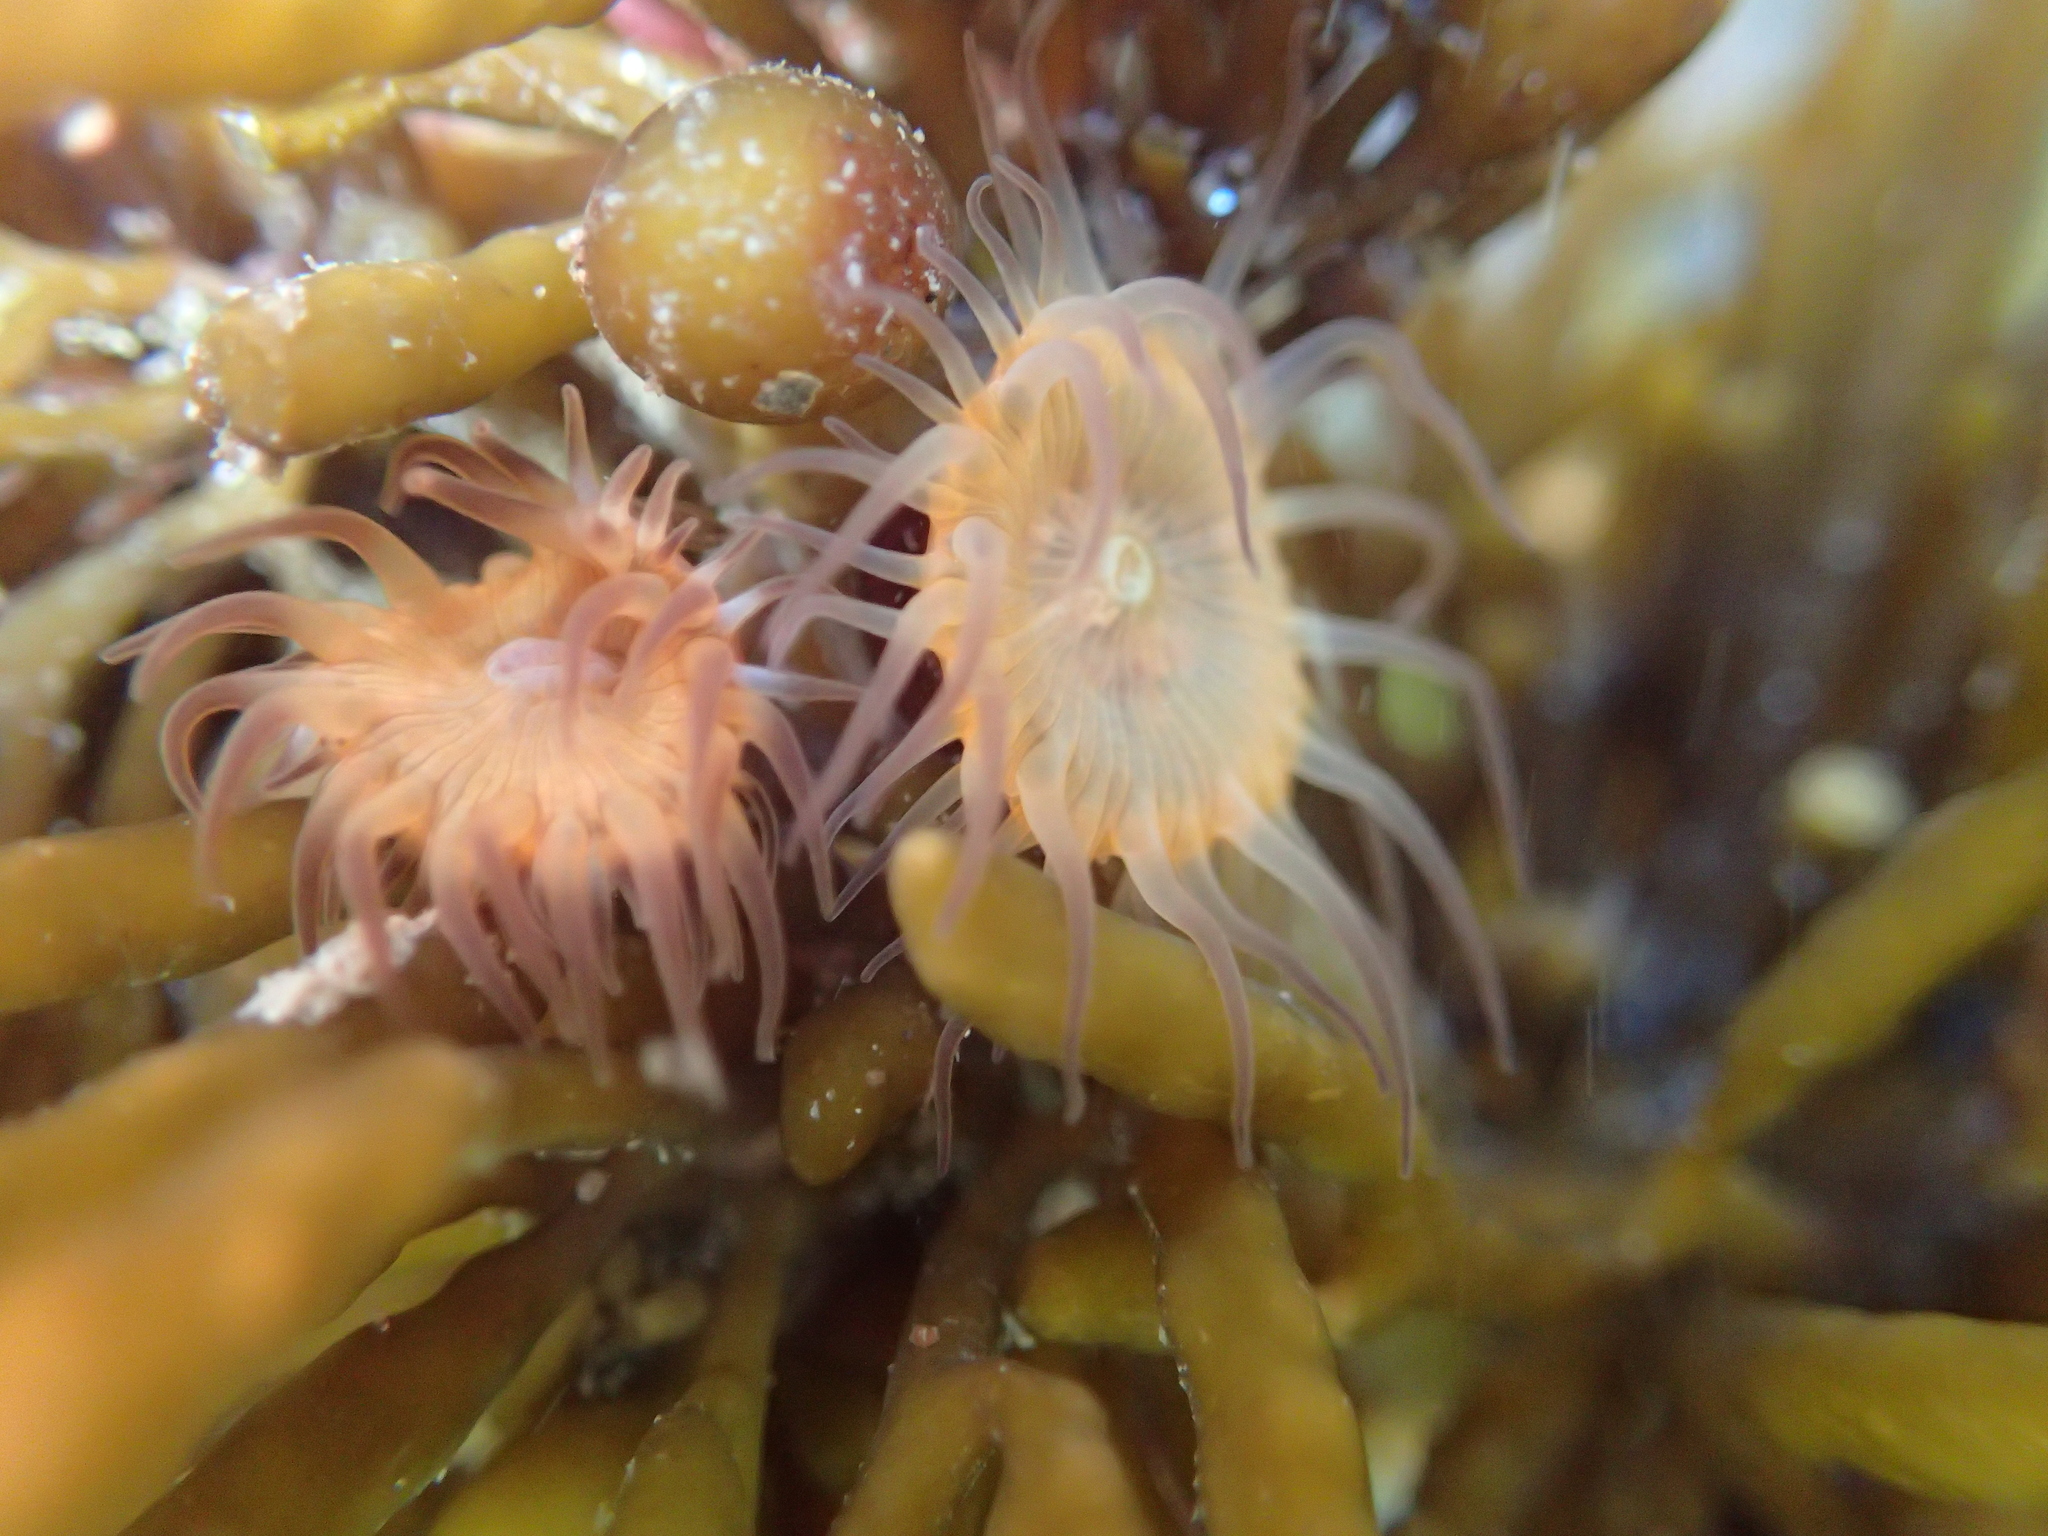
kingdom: Animalia
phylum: Cnidaria
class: Anthozoa
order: Actiniaria
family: Hormathiidae
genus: Handactis
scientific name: Handactis nutrix
